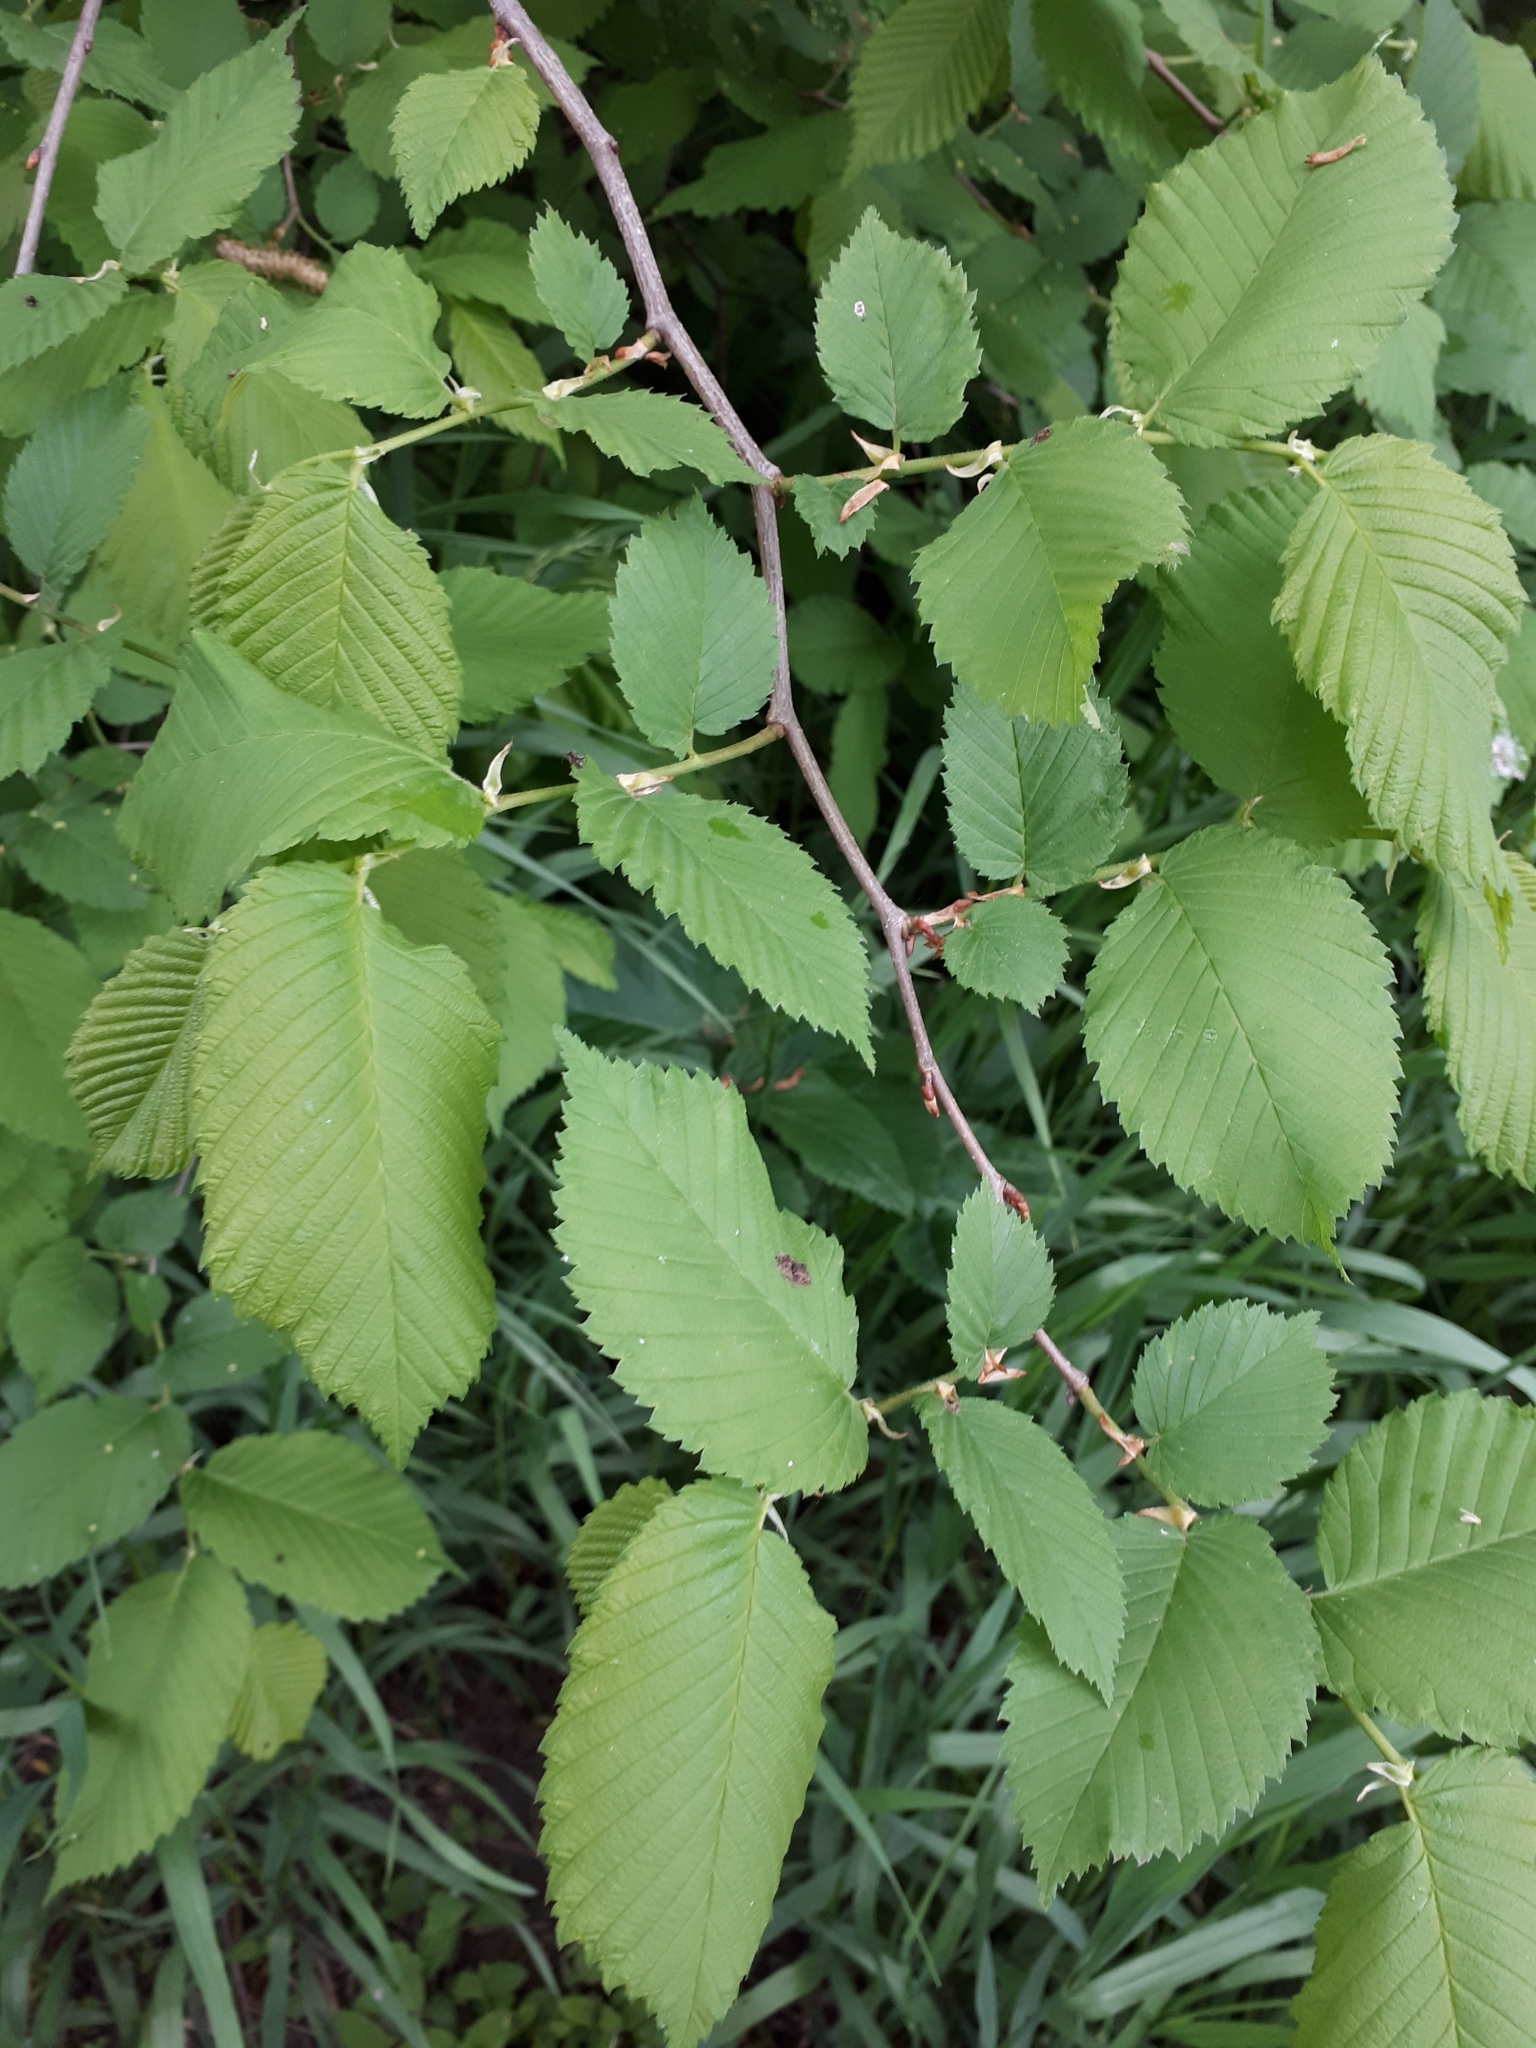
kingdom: Plantae
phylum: Tracheophyta
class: Magnoliopsida
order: Rosales
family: Ulmaceae
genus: Ulmus
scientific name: Ulmus laevis
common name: European white-elm
